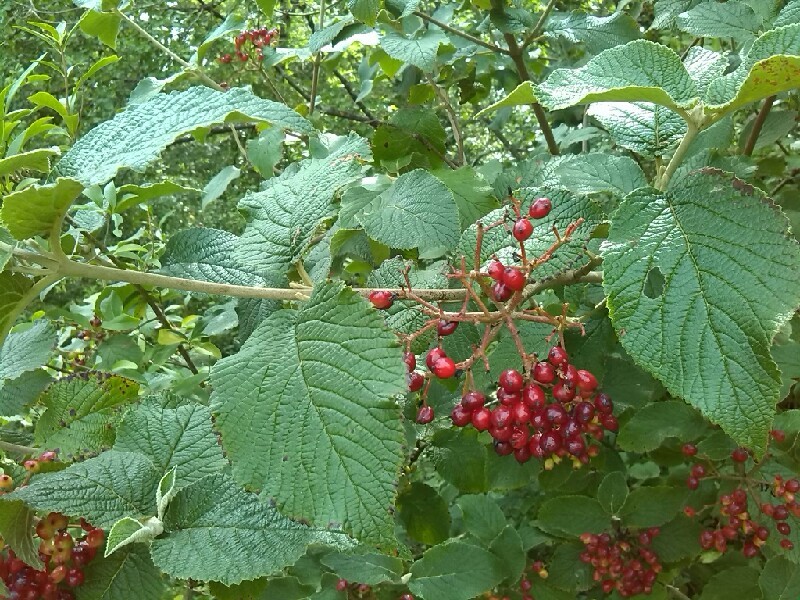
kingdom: Plantae
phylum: Tracheophyta
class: Magnoliopsida
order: Dipsacales
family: Viburnaceae
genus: Viburnum
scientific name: Viburnum lantana
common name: Wayfaring tree
